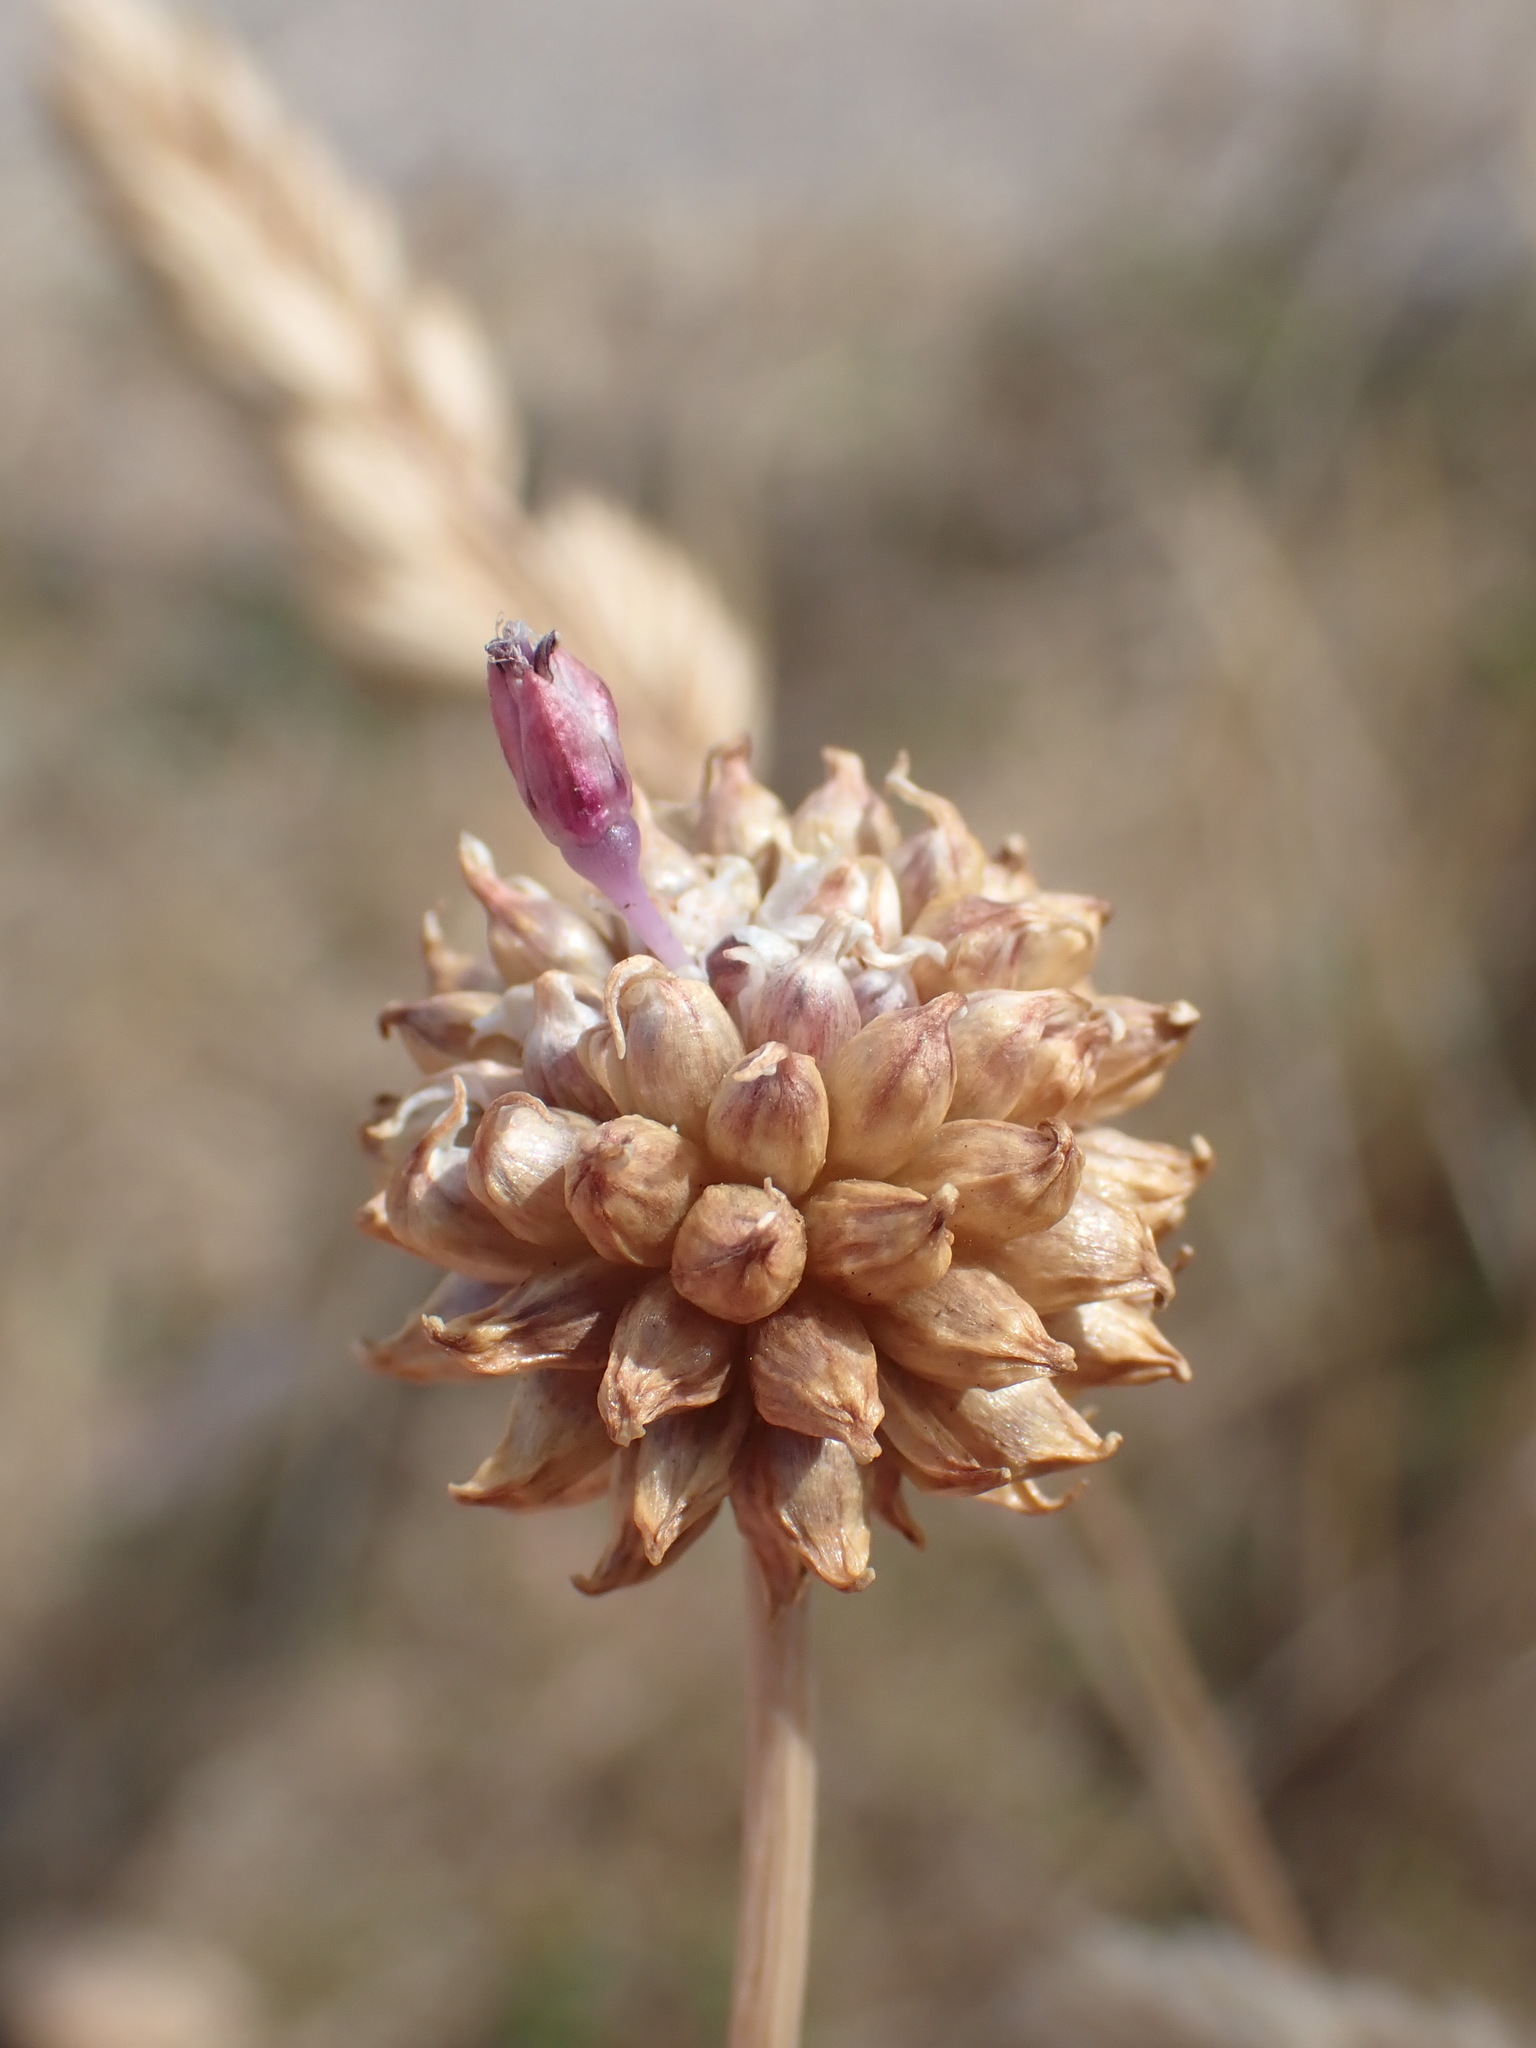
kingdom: Plantae
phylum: Tracheophyta
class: Liliopsida
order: Asparagales
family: Amaryllidaceae
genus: Allium
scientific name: Allium vineale
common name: Crow garlic
